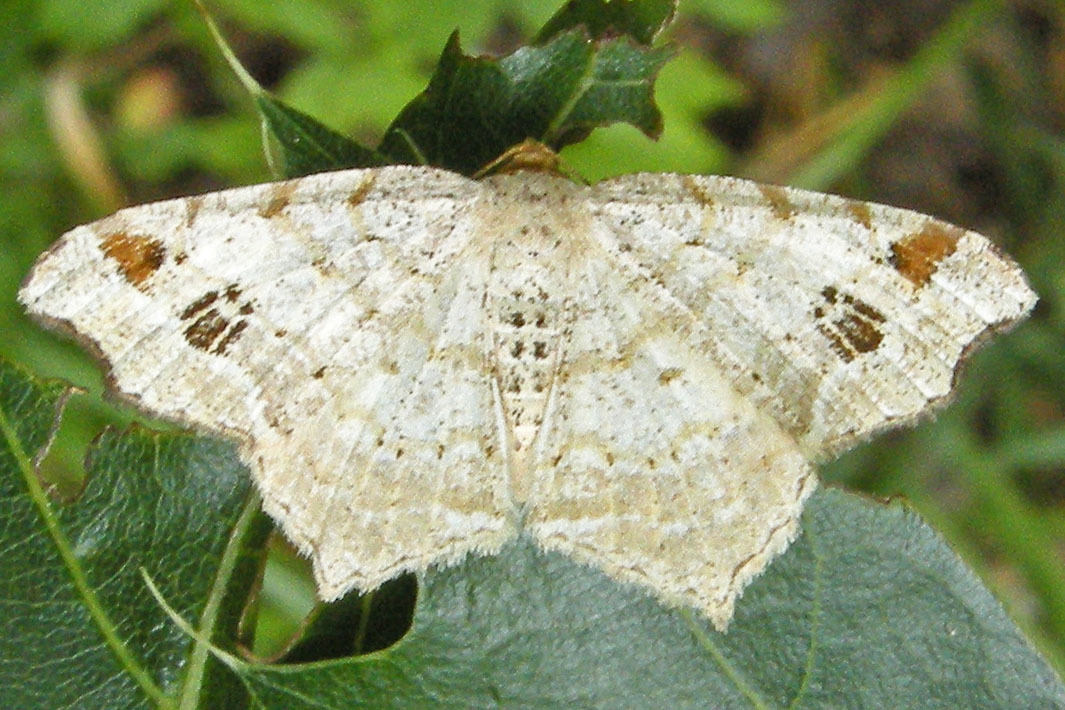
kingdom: Animalia
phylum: Arthropoda
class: Insecta
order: Lepidoptera
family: Geometridae
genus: Macaria
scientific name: Macaria aemulataria
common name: Common angle
